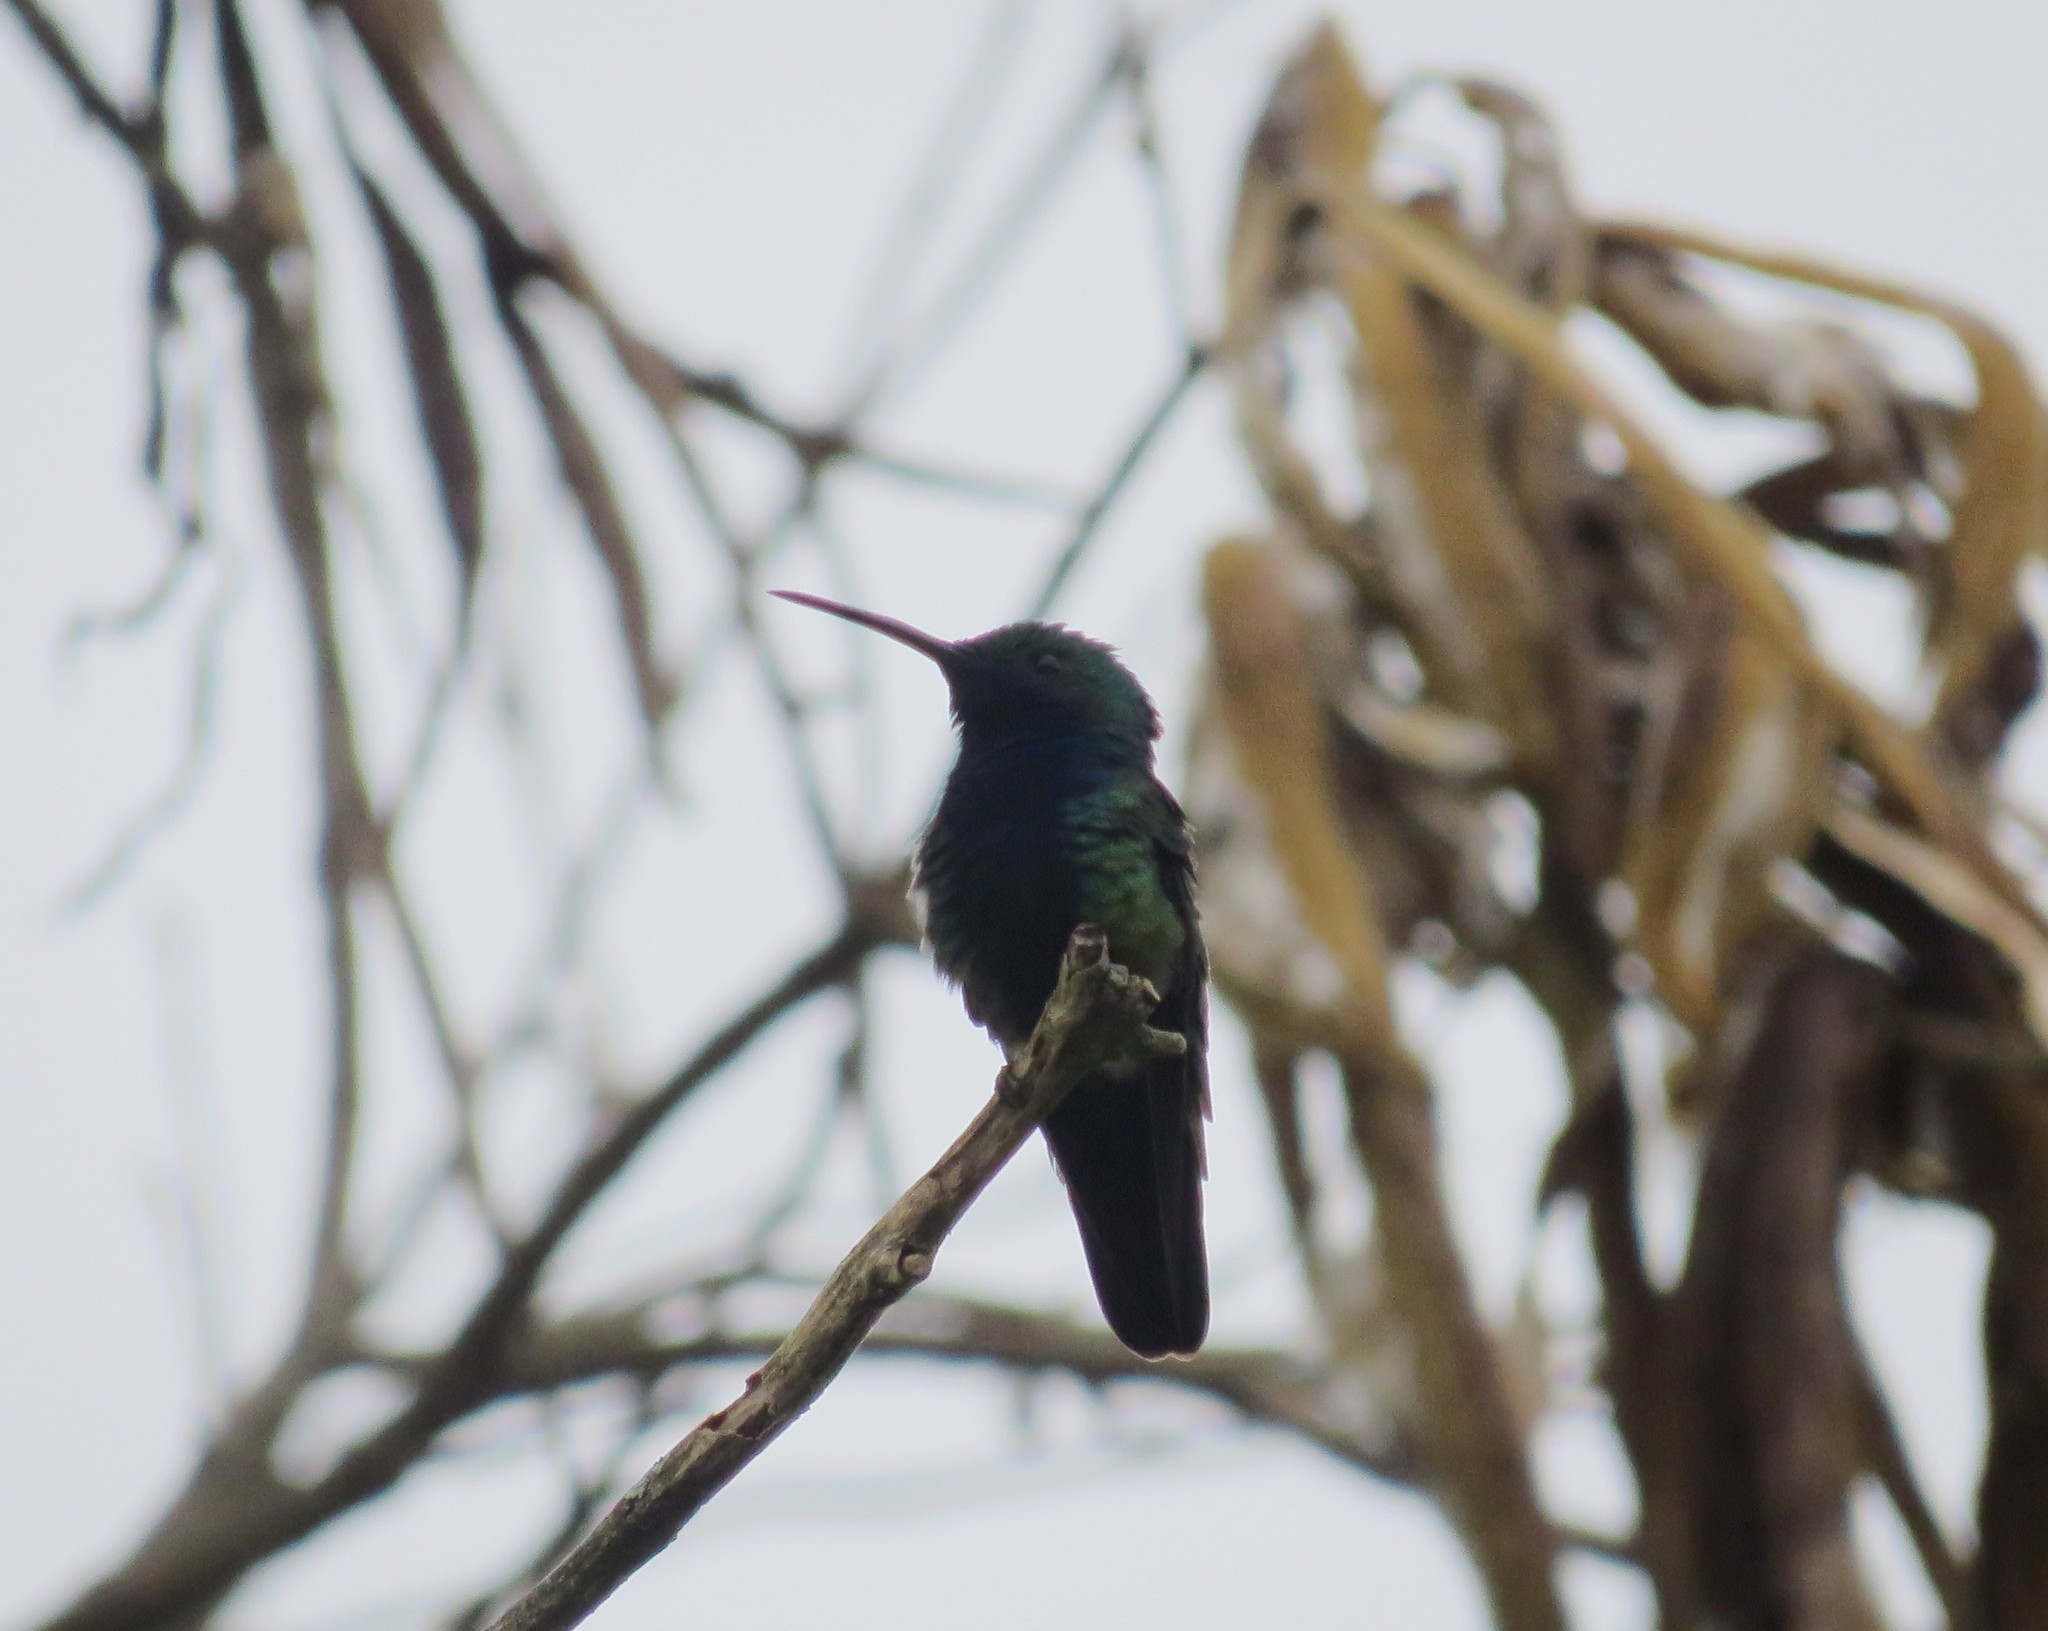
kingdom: Animalia
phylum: Chordata
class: Aves
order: Apodiformes
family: Trochilidae
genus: Anthracothorax
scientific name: Anthracothorax nigricollis
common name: Black-throated mango
